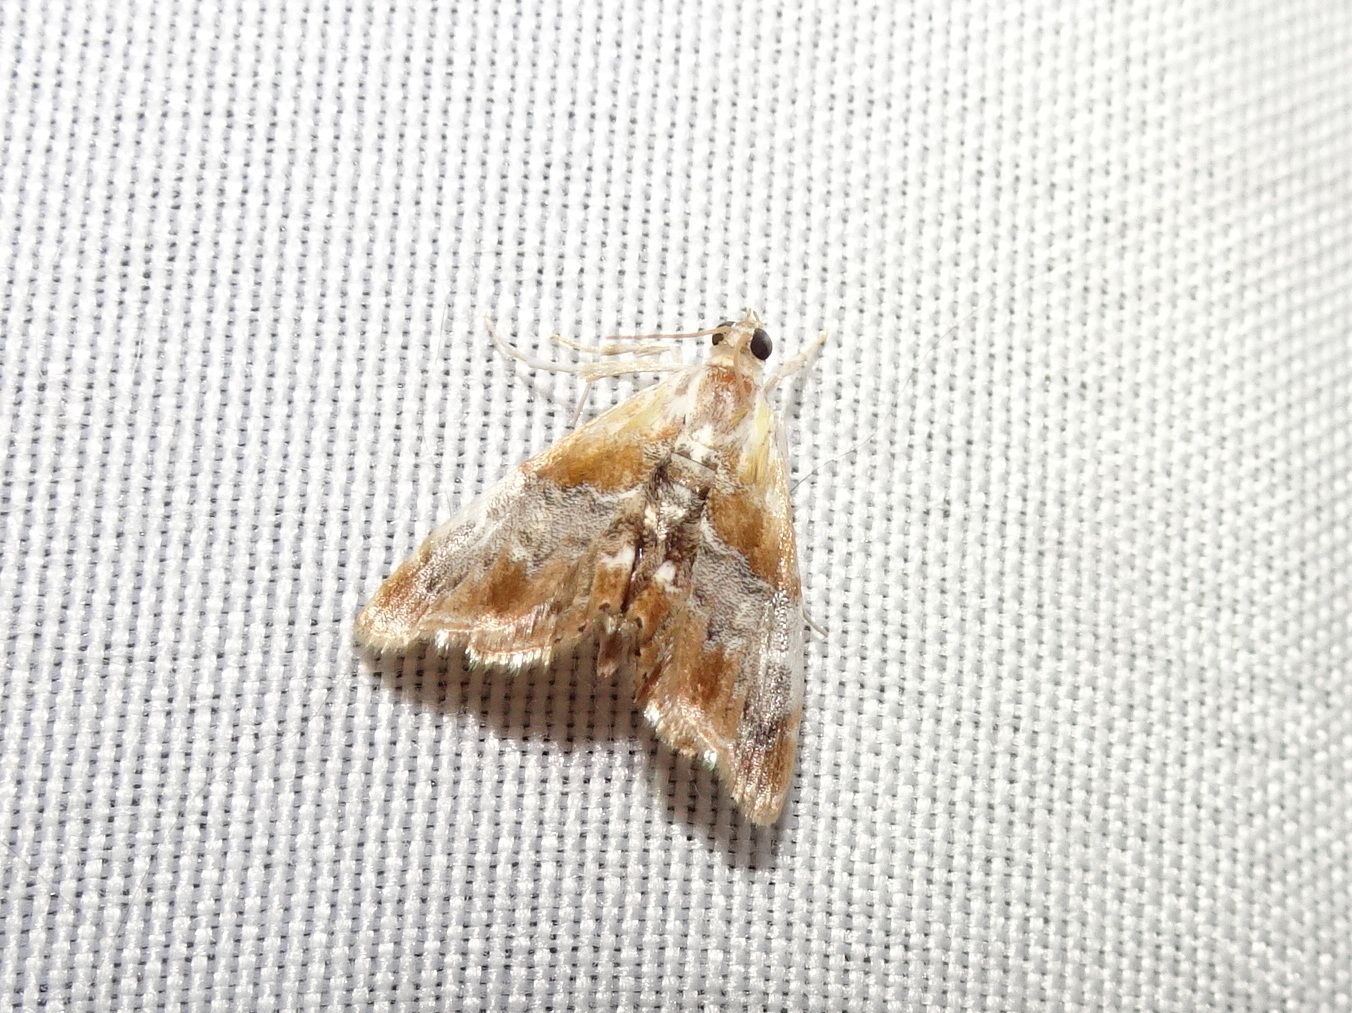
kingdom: Animalia
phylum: Arthropoda
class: Insecta
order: Lepidoptera
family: Crambidae
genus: Dicymolomia
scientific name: Dicymolomia julianalis
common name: Julia's dicymolomia moth
